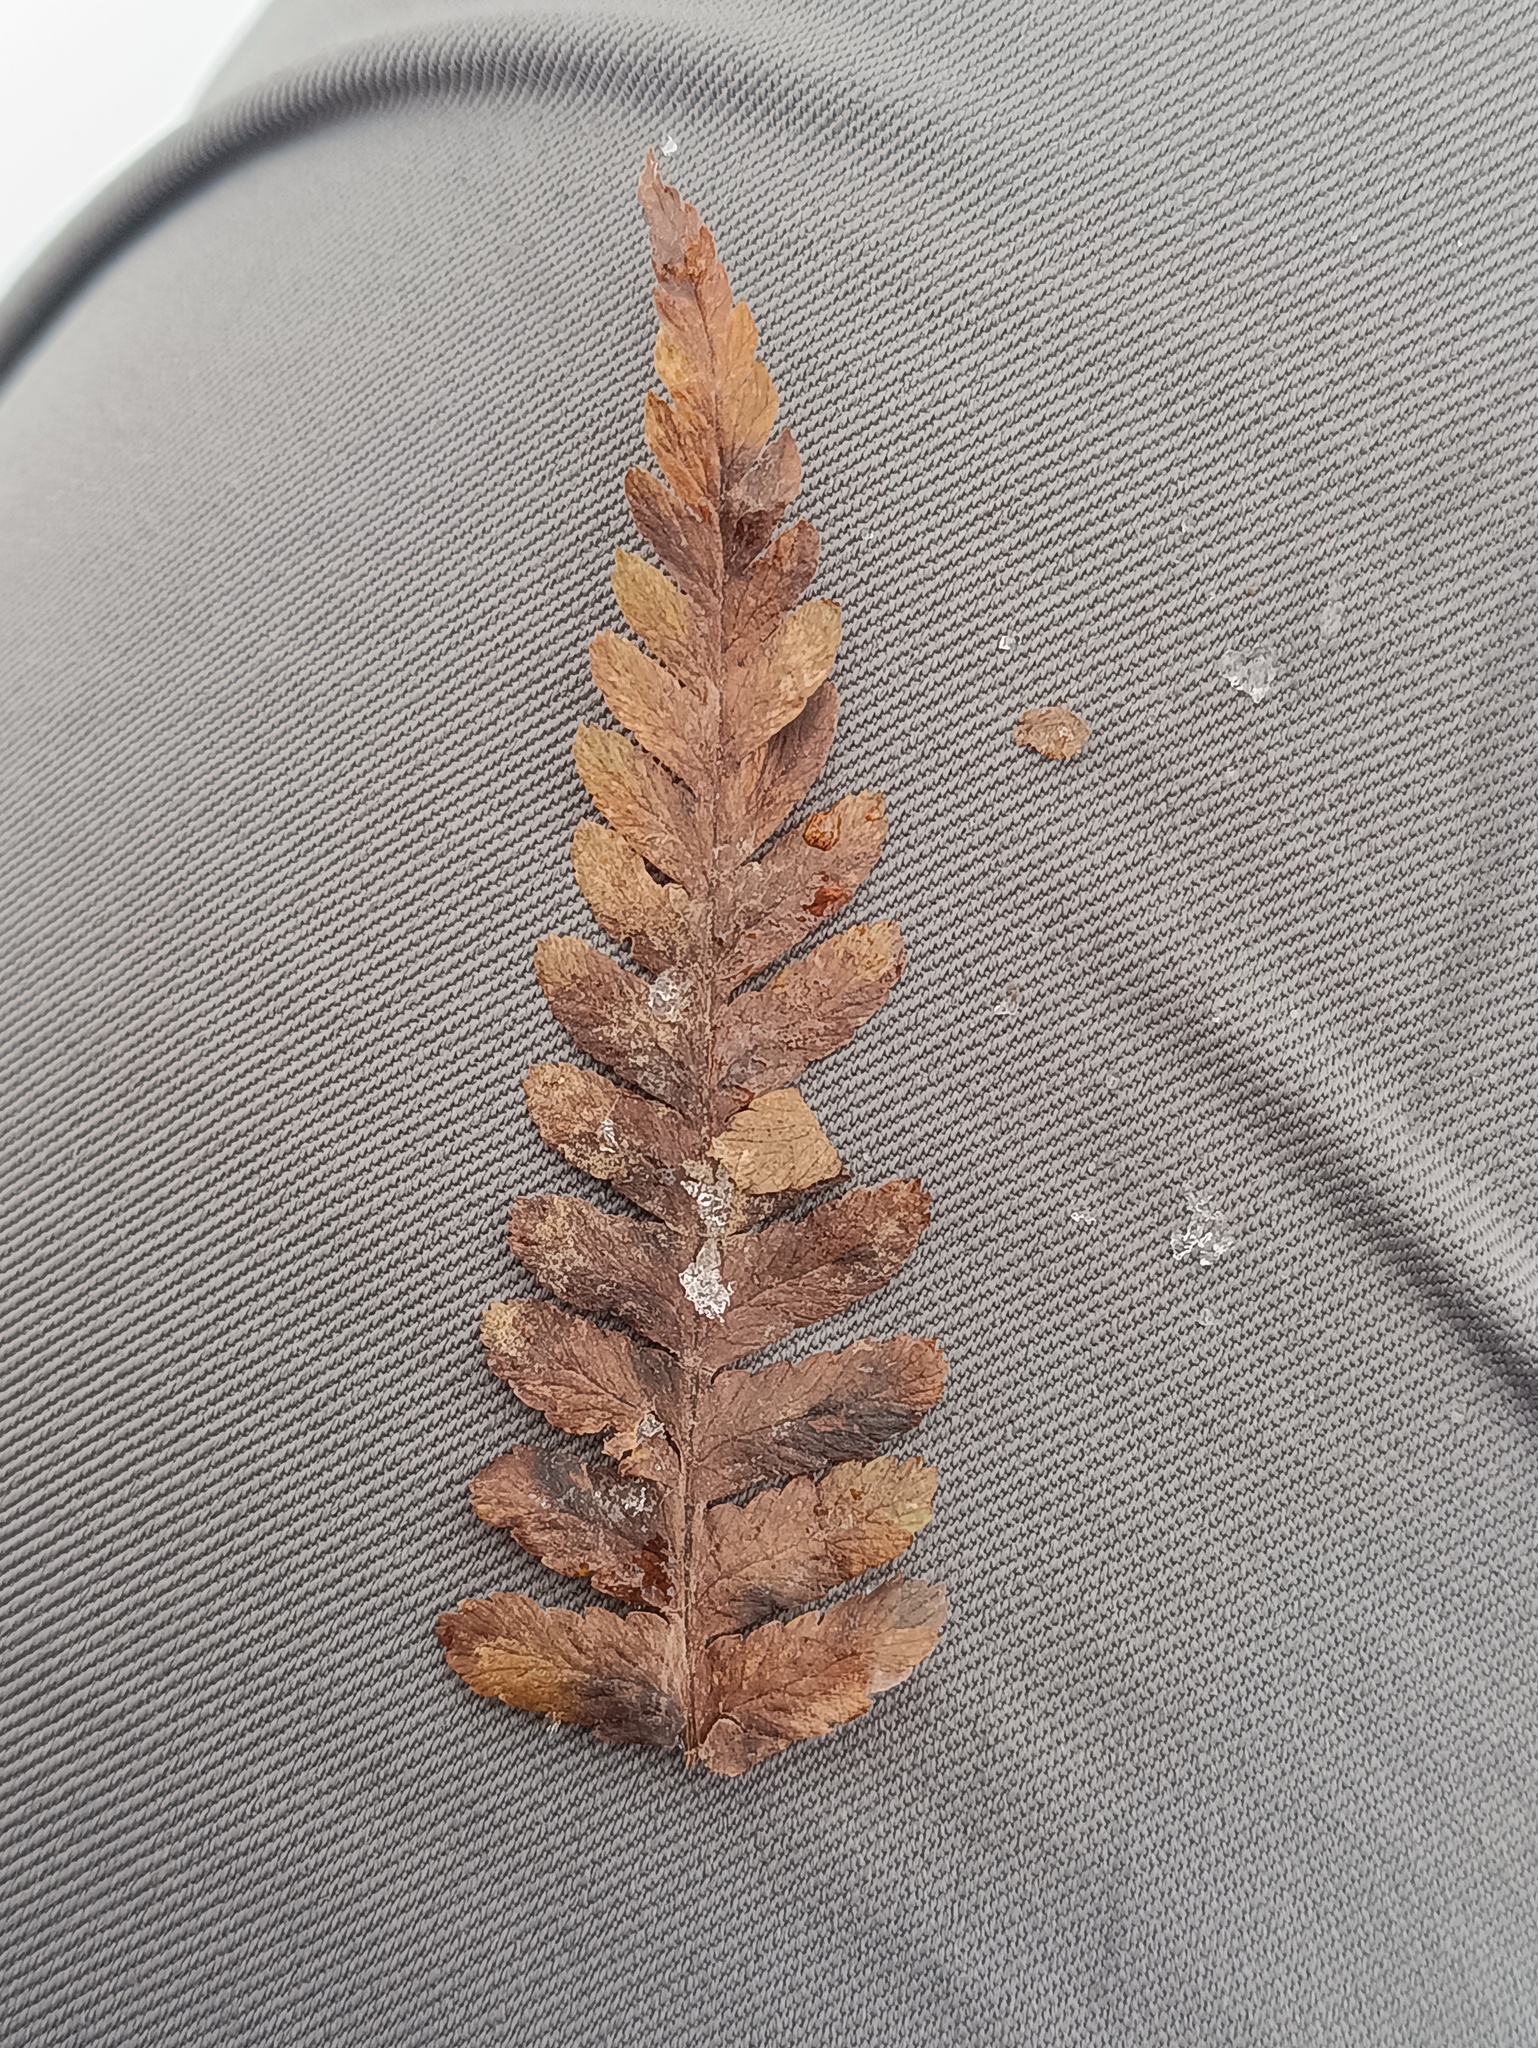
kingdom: Plantae
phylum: Tracheophyta
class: Polypodiopsida
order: Polypodiales
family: Dryopteridaceae
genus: Dryopteris
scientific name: Dryopteris filix-mas
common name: Male fern
